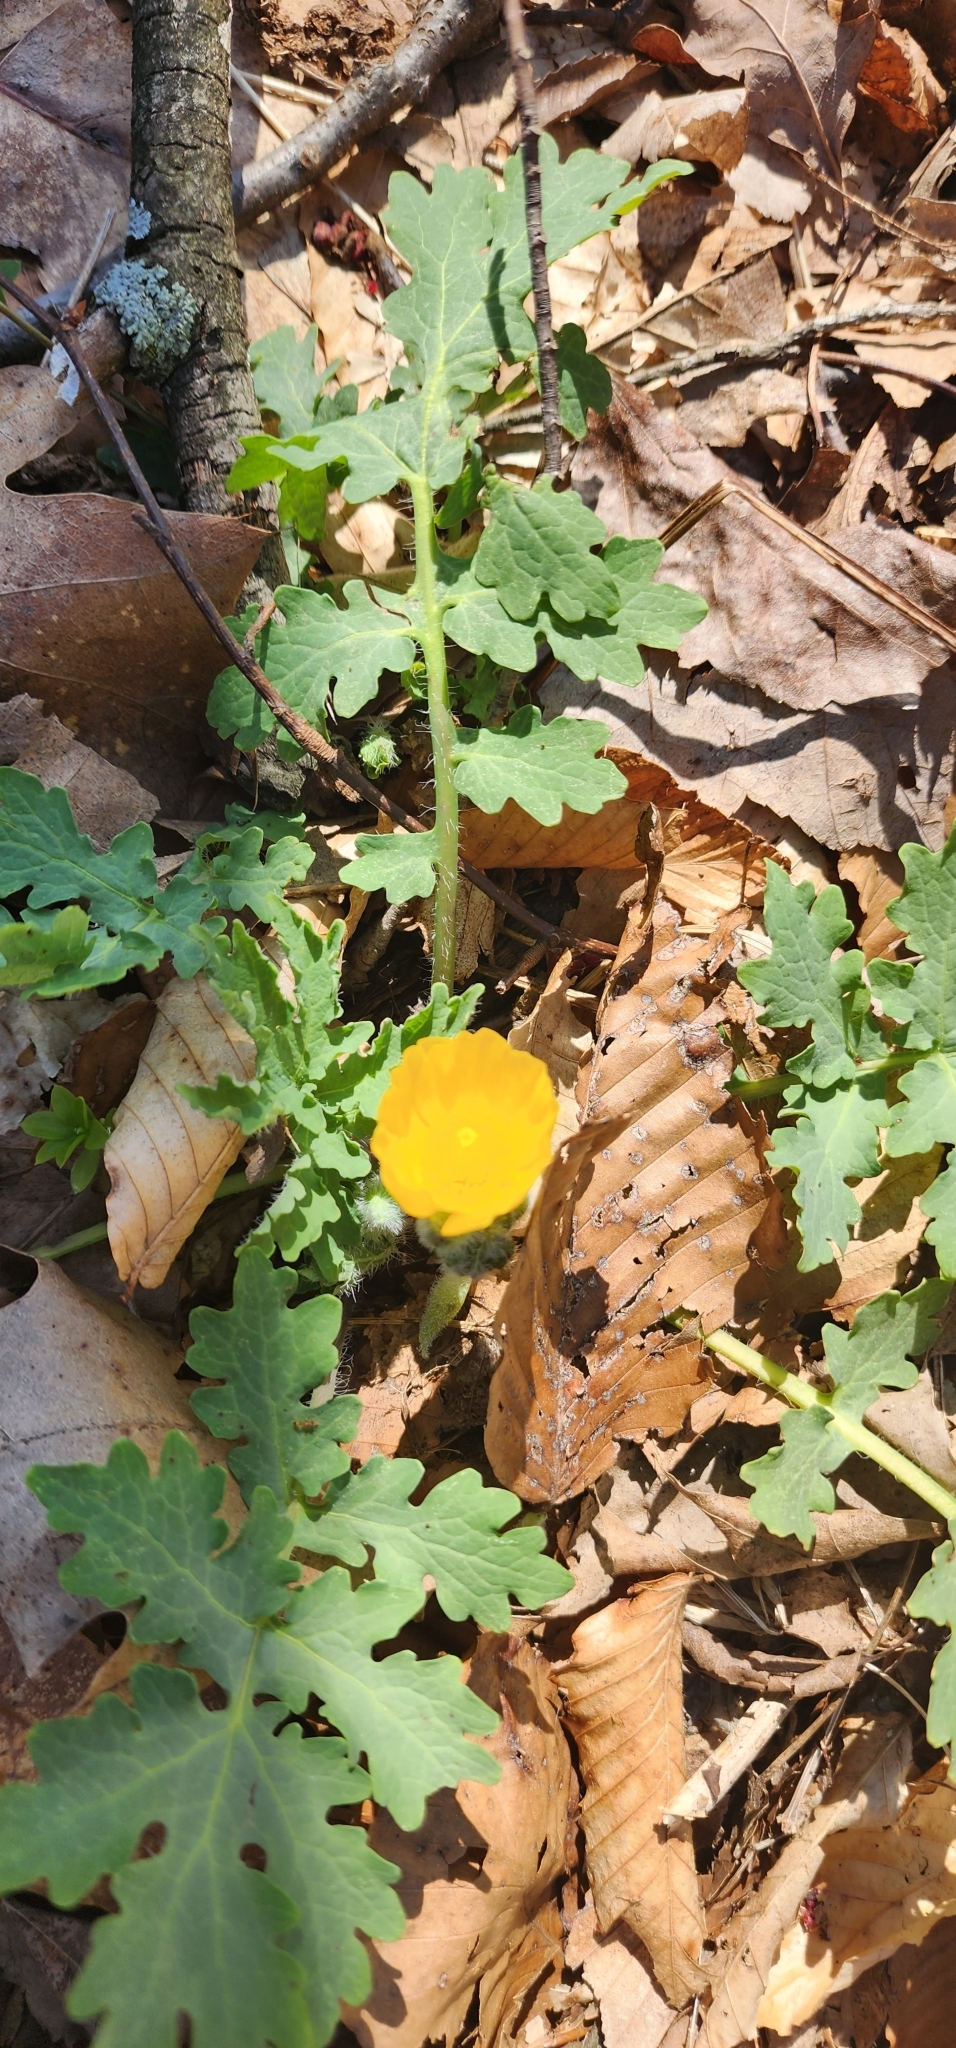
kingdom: Plantae
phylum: Tracheophyta
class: Magnoliopsida
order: Ranunculales
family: Papaveraceae
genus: Stylophorum
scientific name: Stylophorum diphyllum
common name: Celandine poppy
